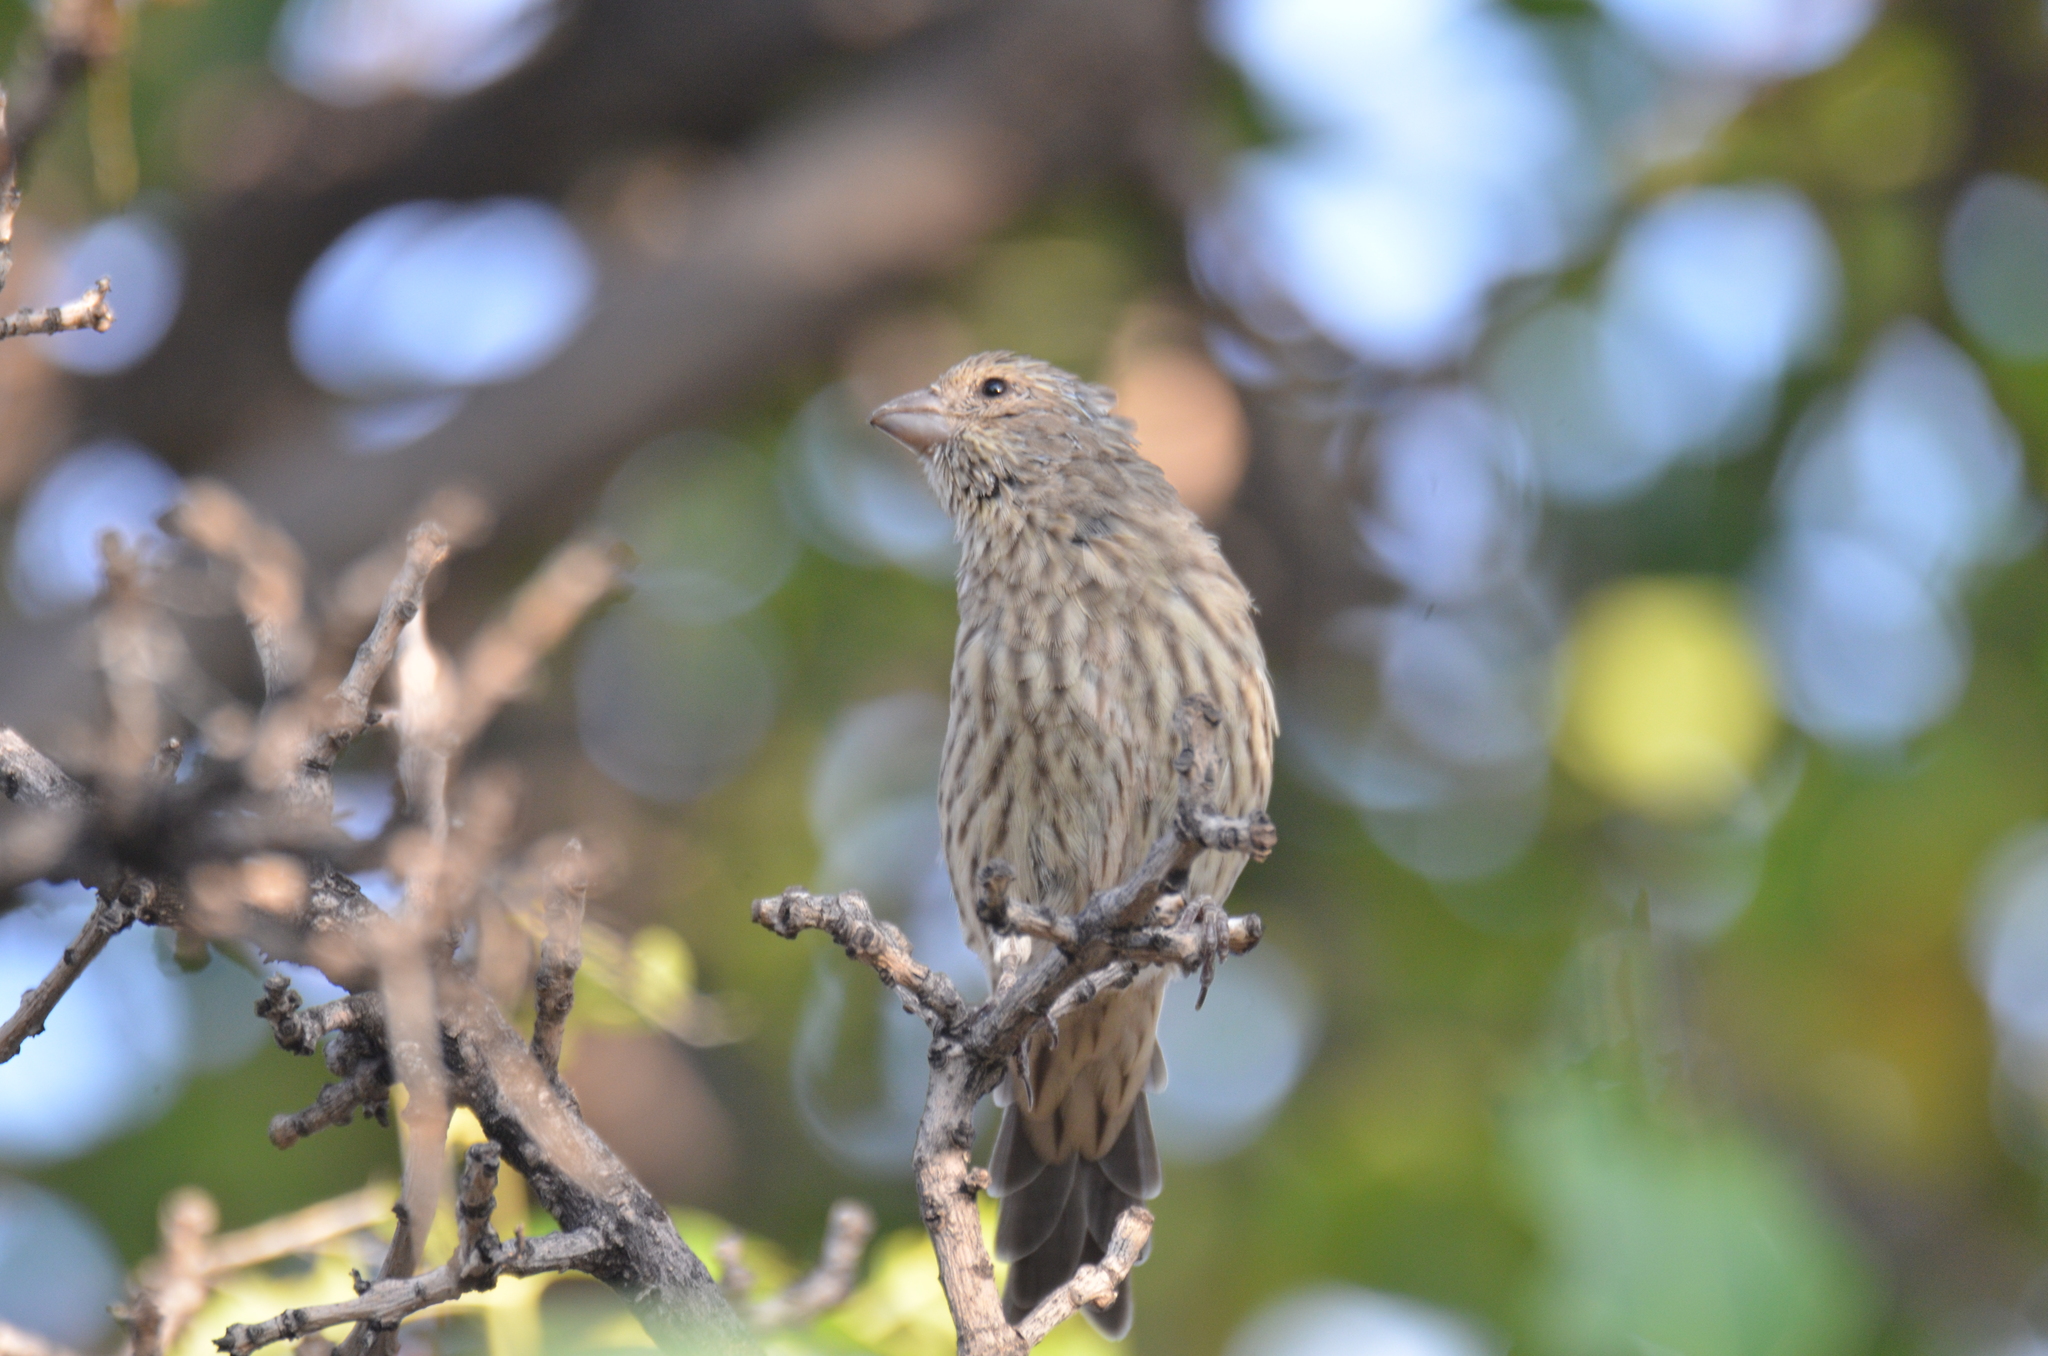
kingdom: Animalia
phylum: Chordata
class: Aves
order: Passeriformes
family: Fringillidae
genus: Haemorhous
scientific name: Haemorhous mexicanus
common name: House finch
